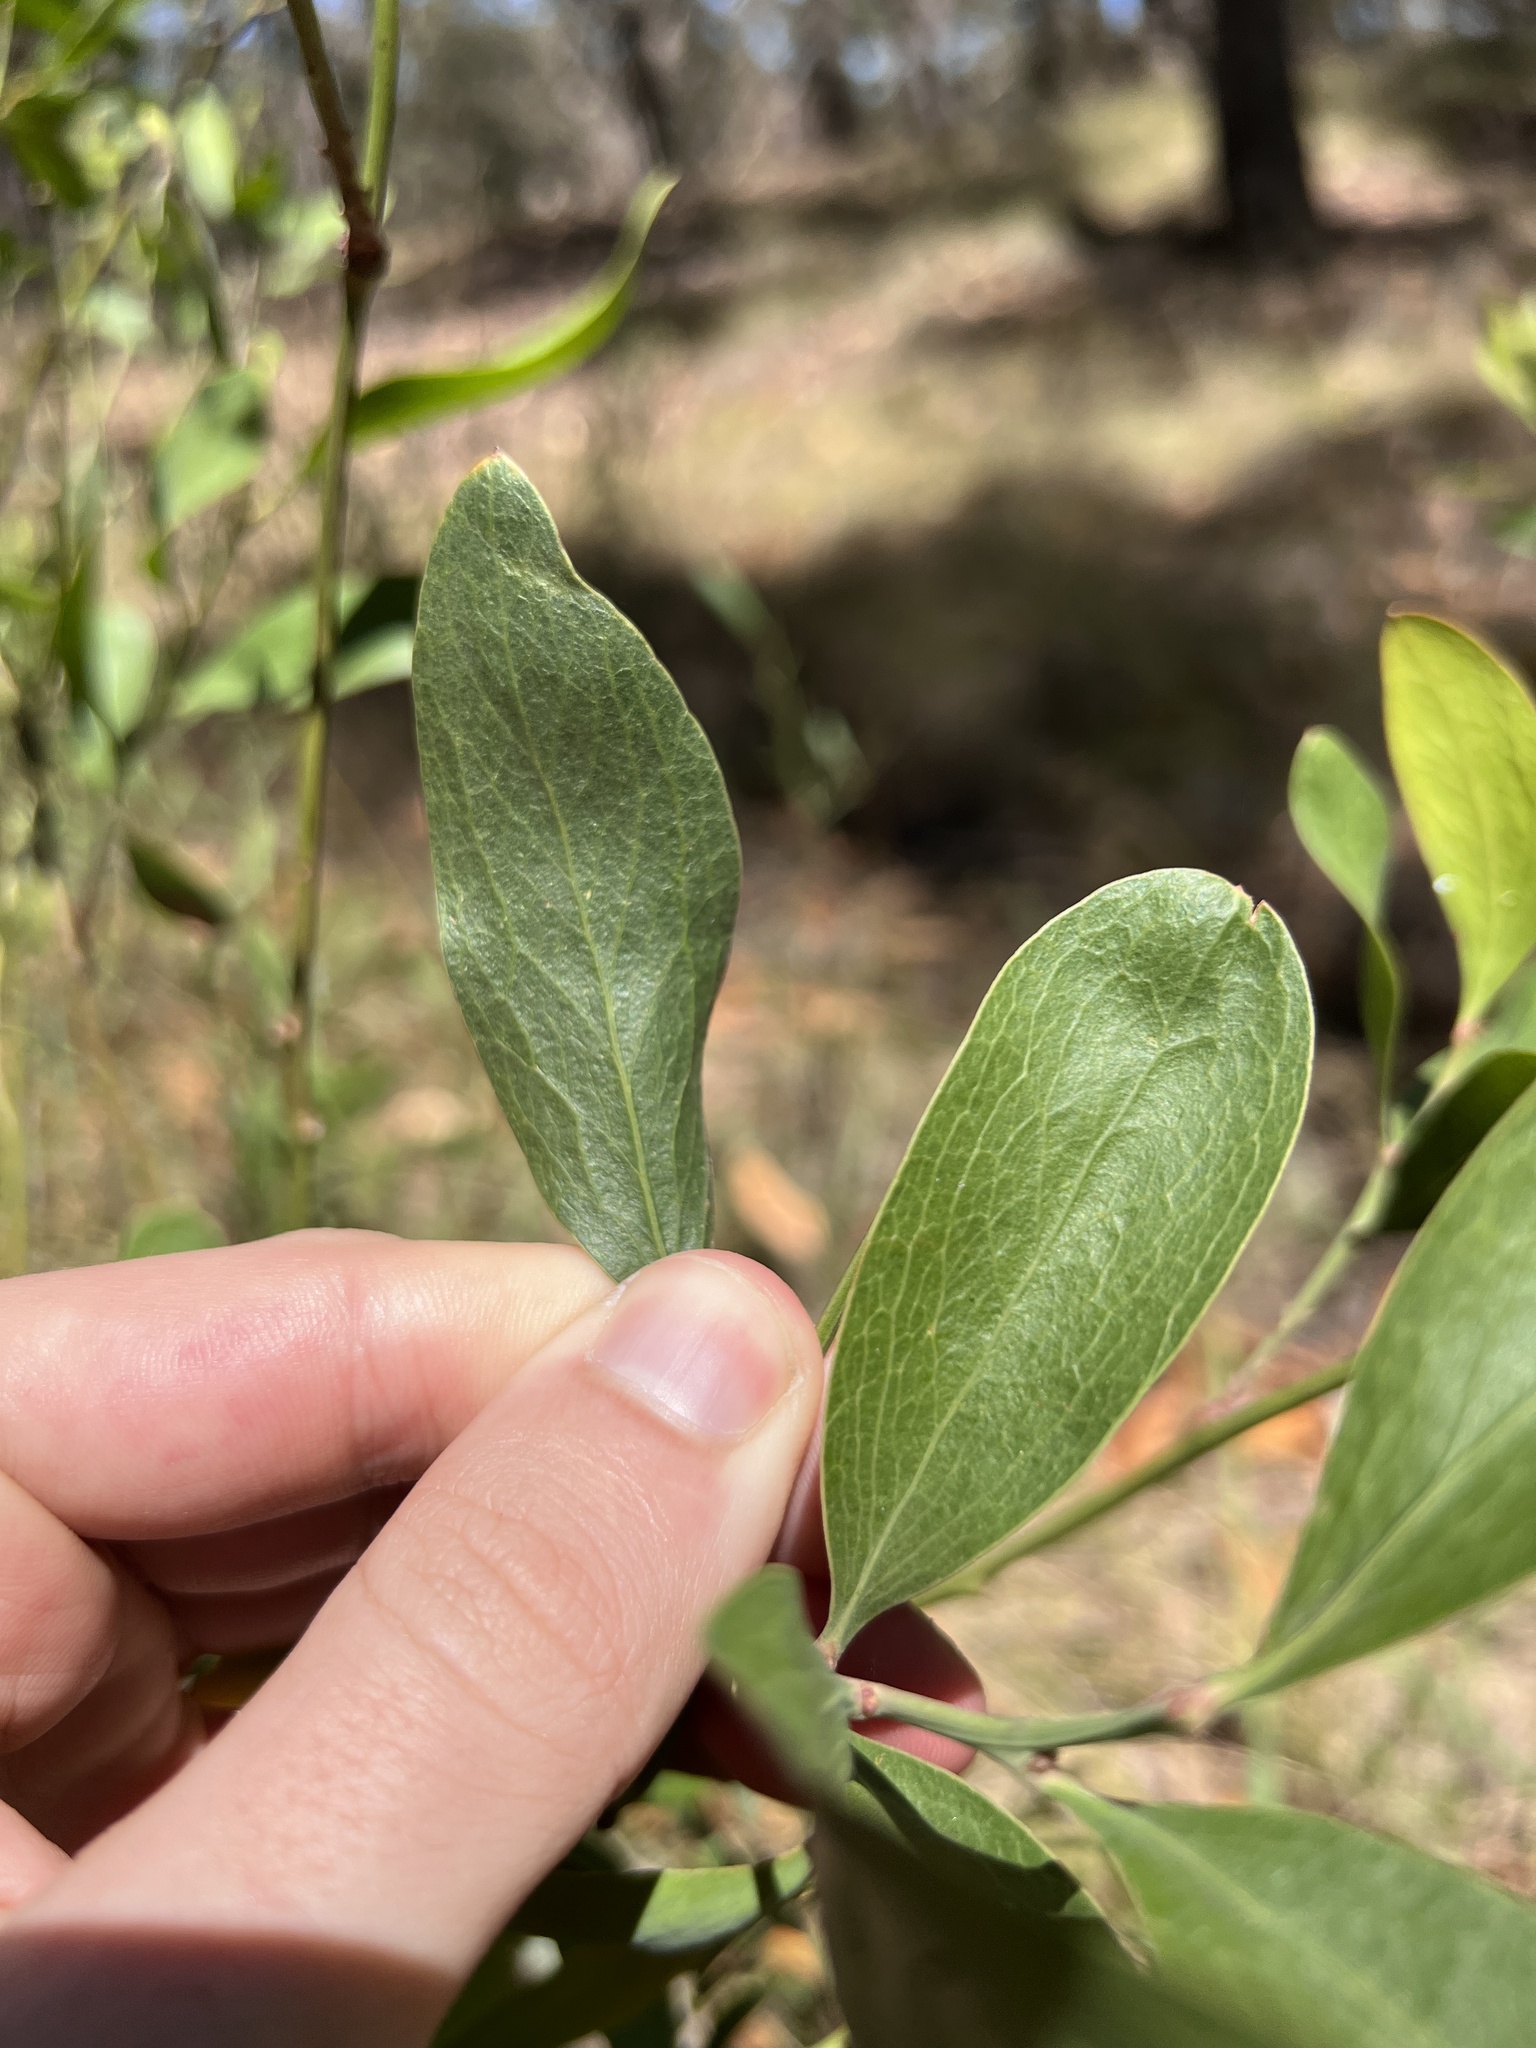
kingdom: Plantae
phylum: Tracheophyta
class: Magnoliopsida
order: Fabales
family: Fabaceae
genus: Daviesia
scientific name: Daviesia laevis
